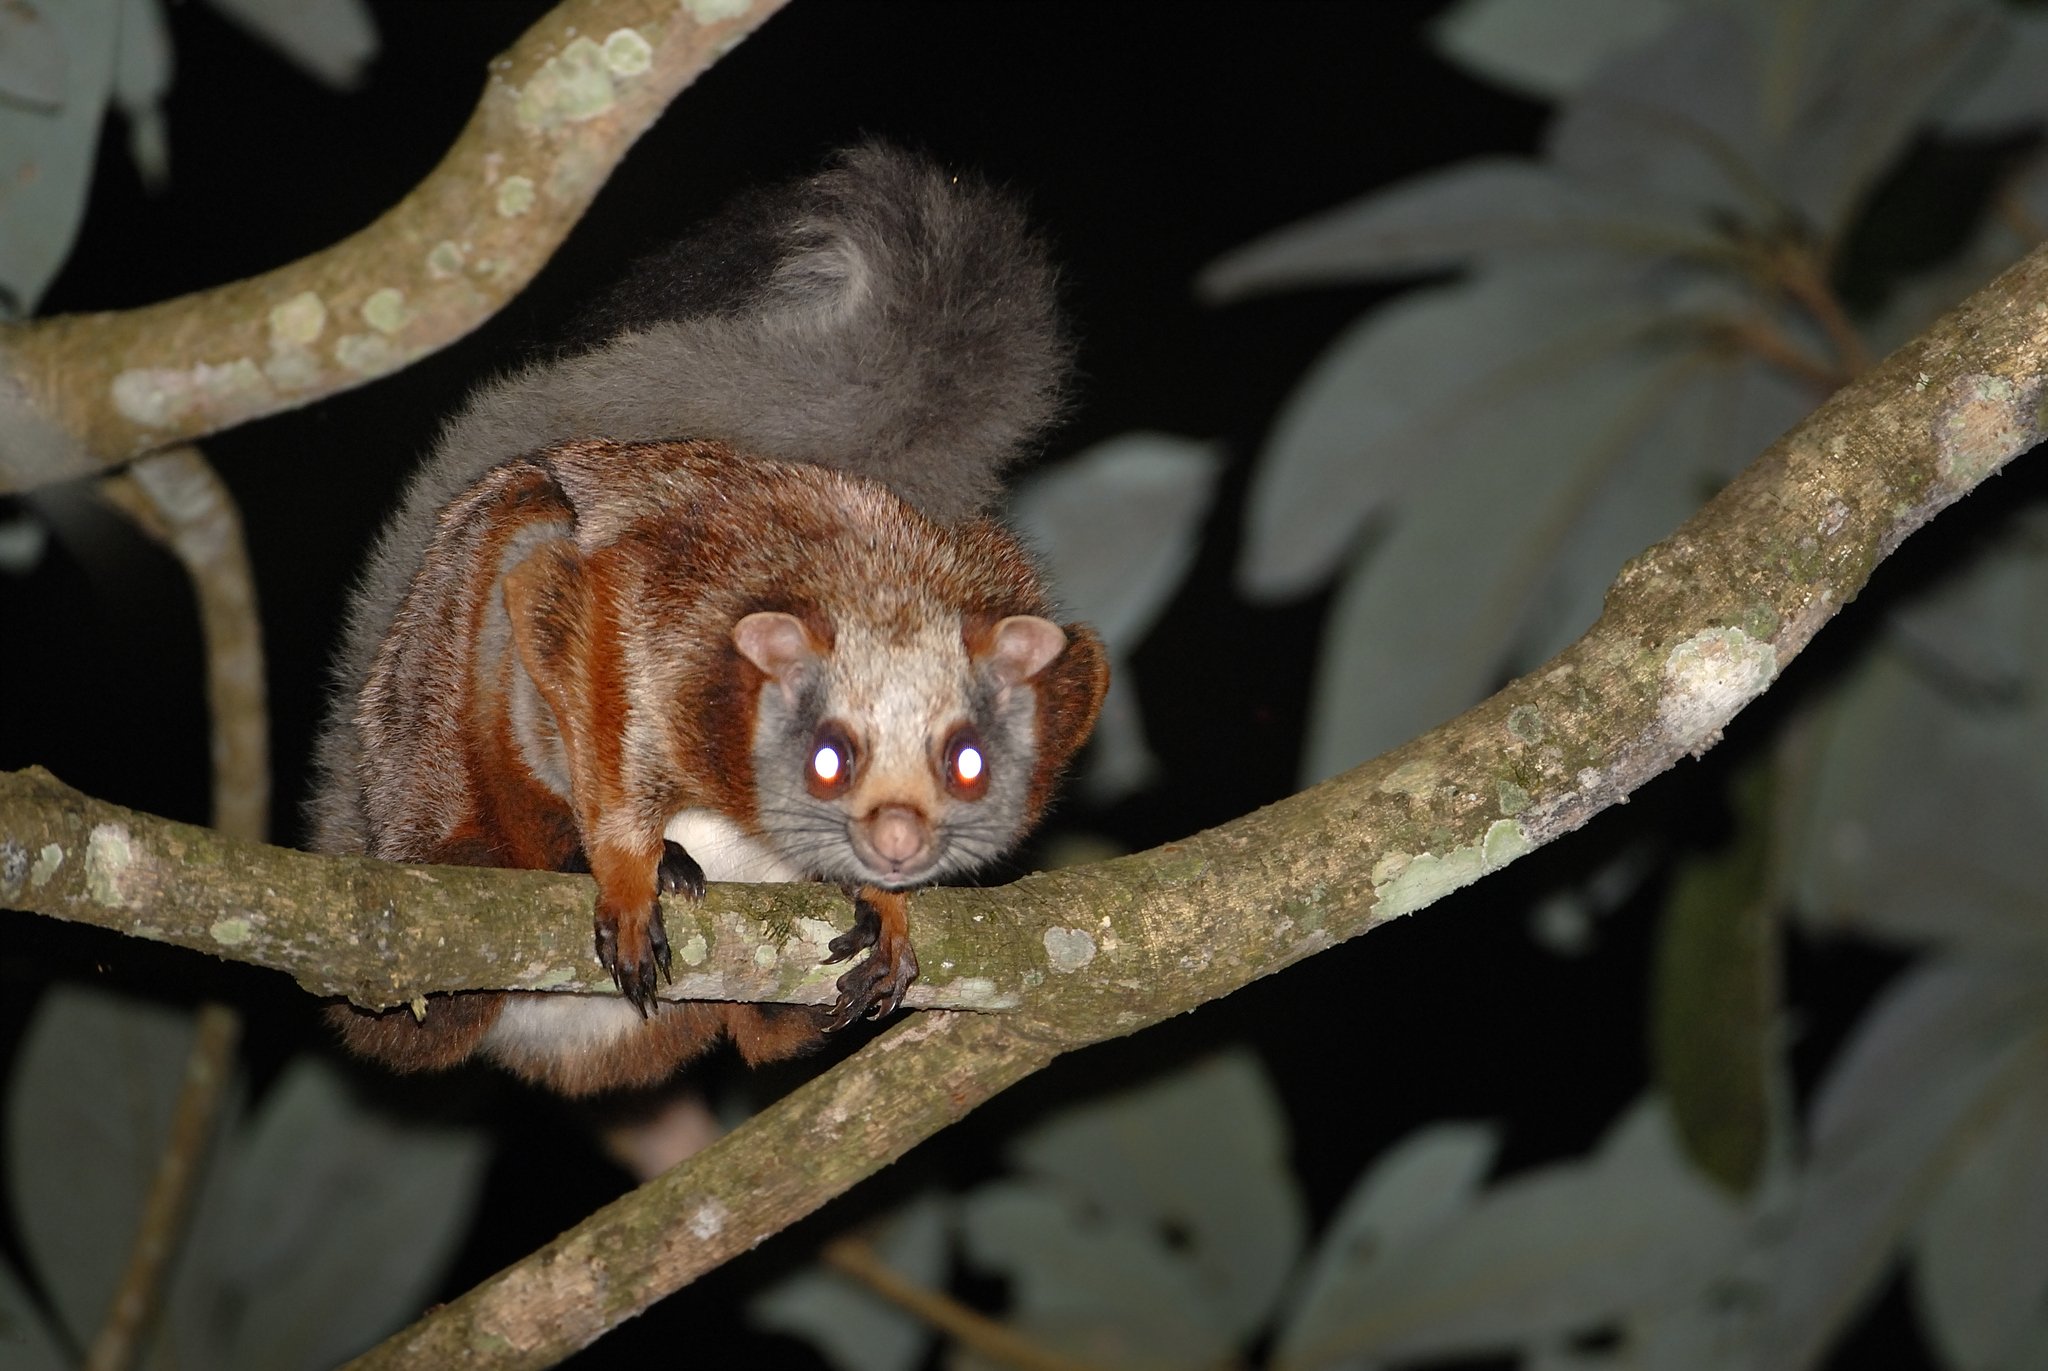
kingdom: Animalia
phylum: Chordata
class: Mammalia
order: Rodentia
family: Sciuridae
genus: Petaurista
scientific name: Petaurista petaurista
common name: Red giant flying squirrel
